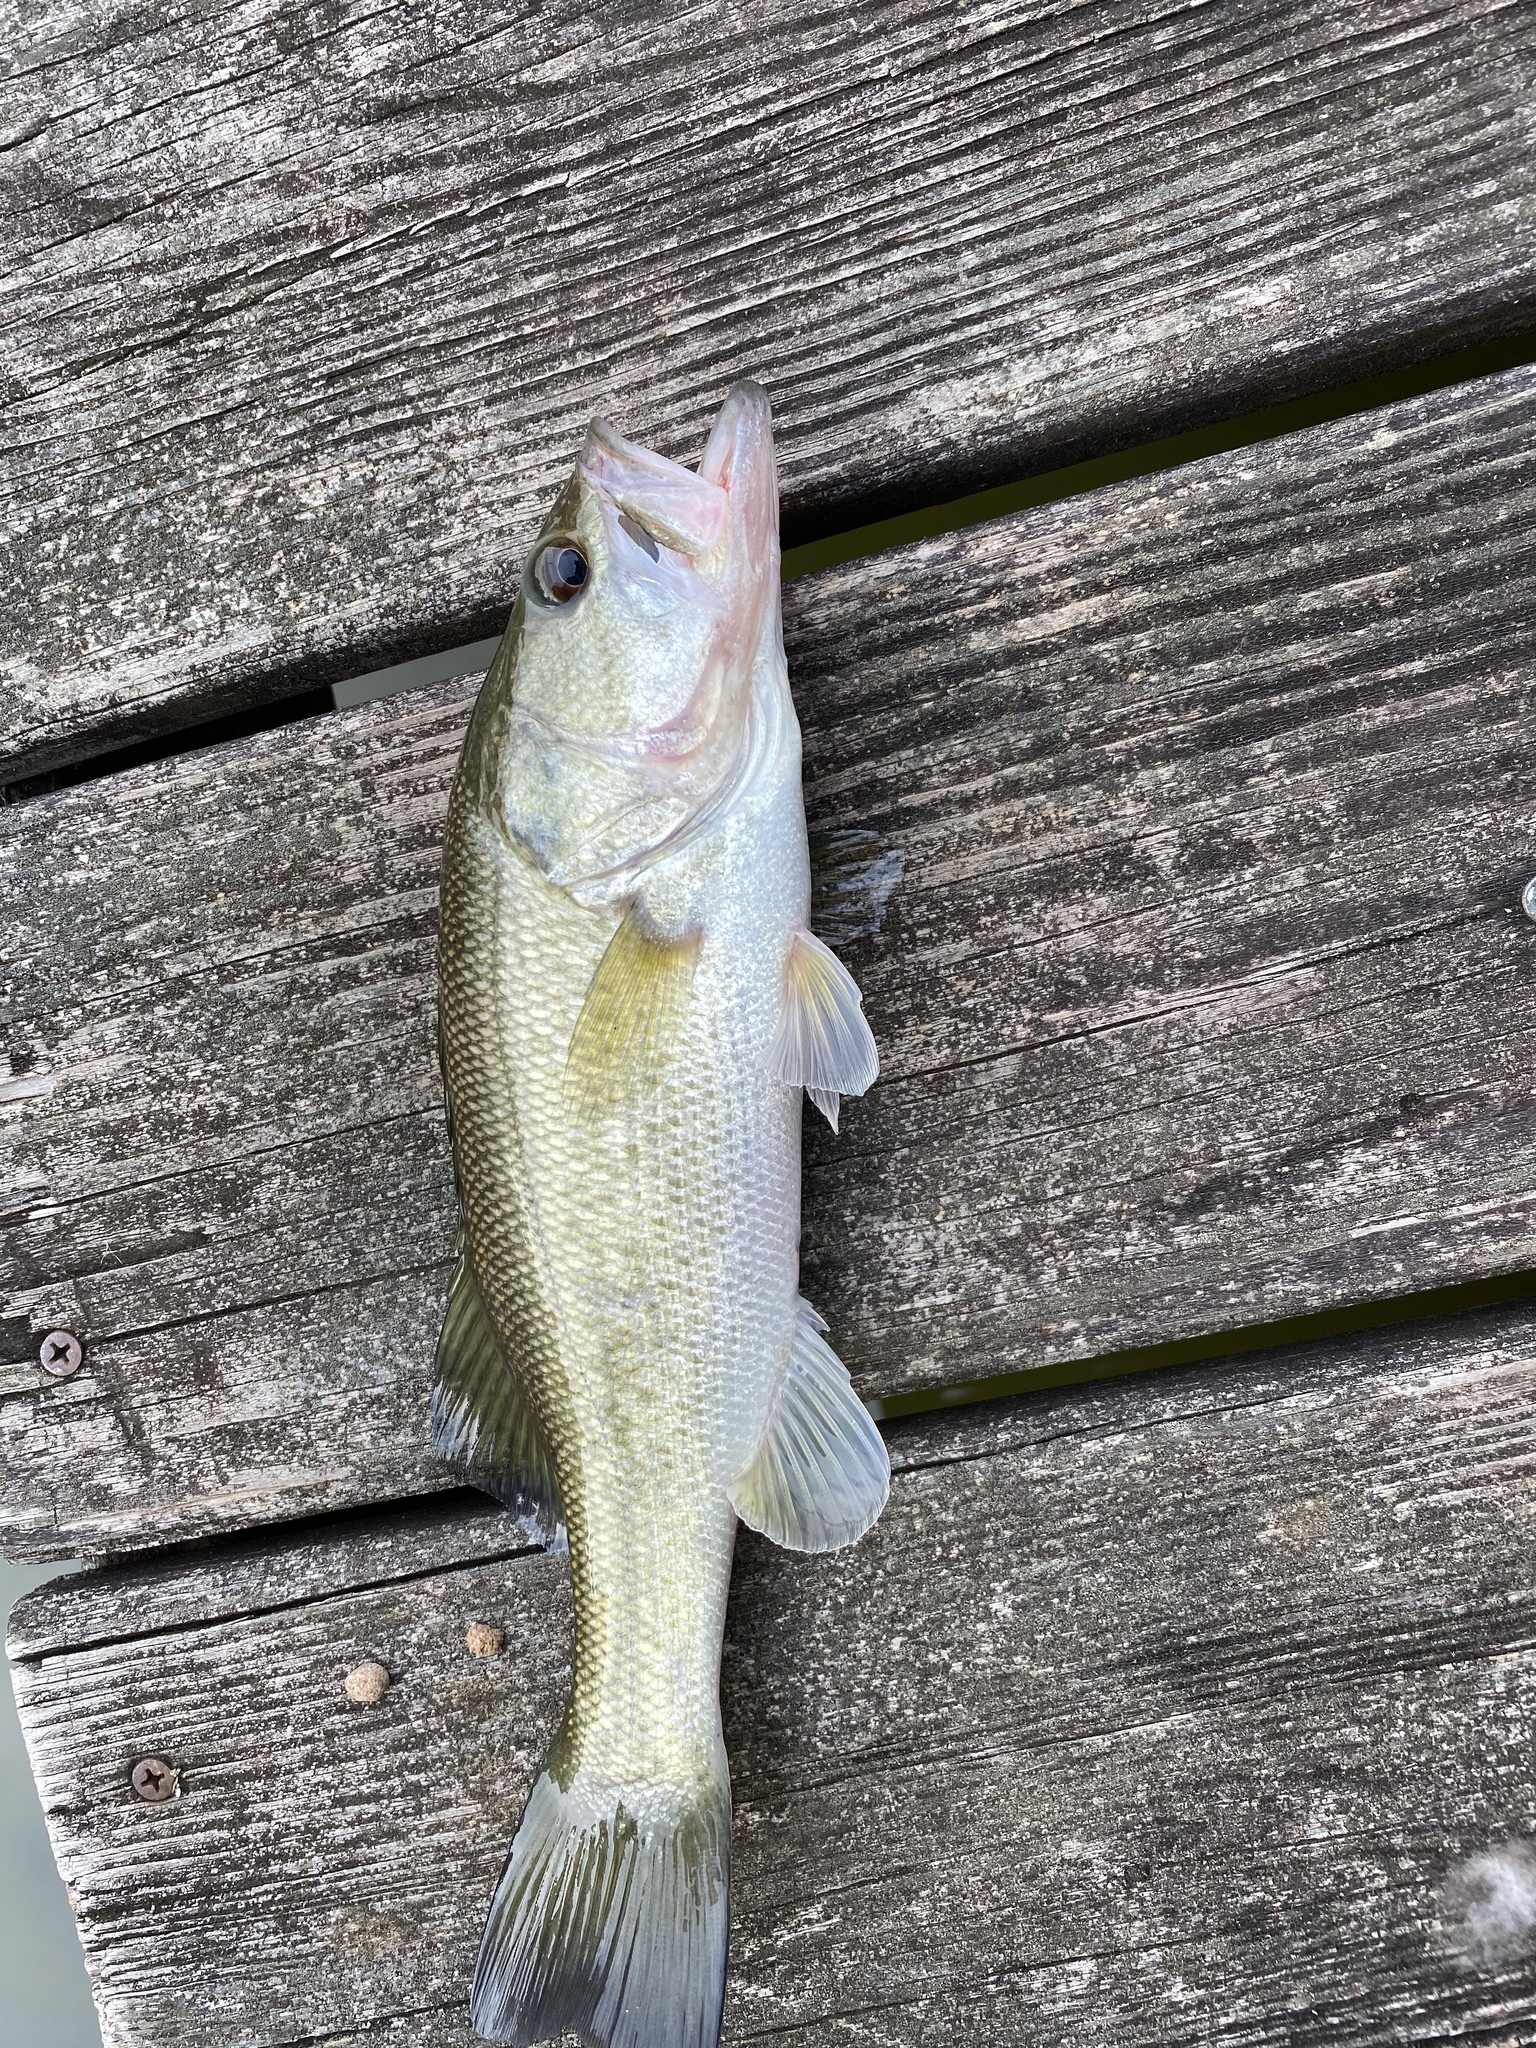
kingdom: Animalia
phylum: Chordata
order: Perciformes
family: Centrarchidae
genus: Micropterus
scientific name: Micropterus salmoides
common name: Largemouth bass
